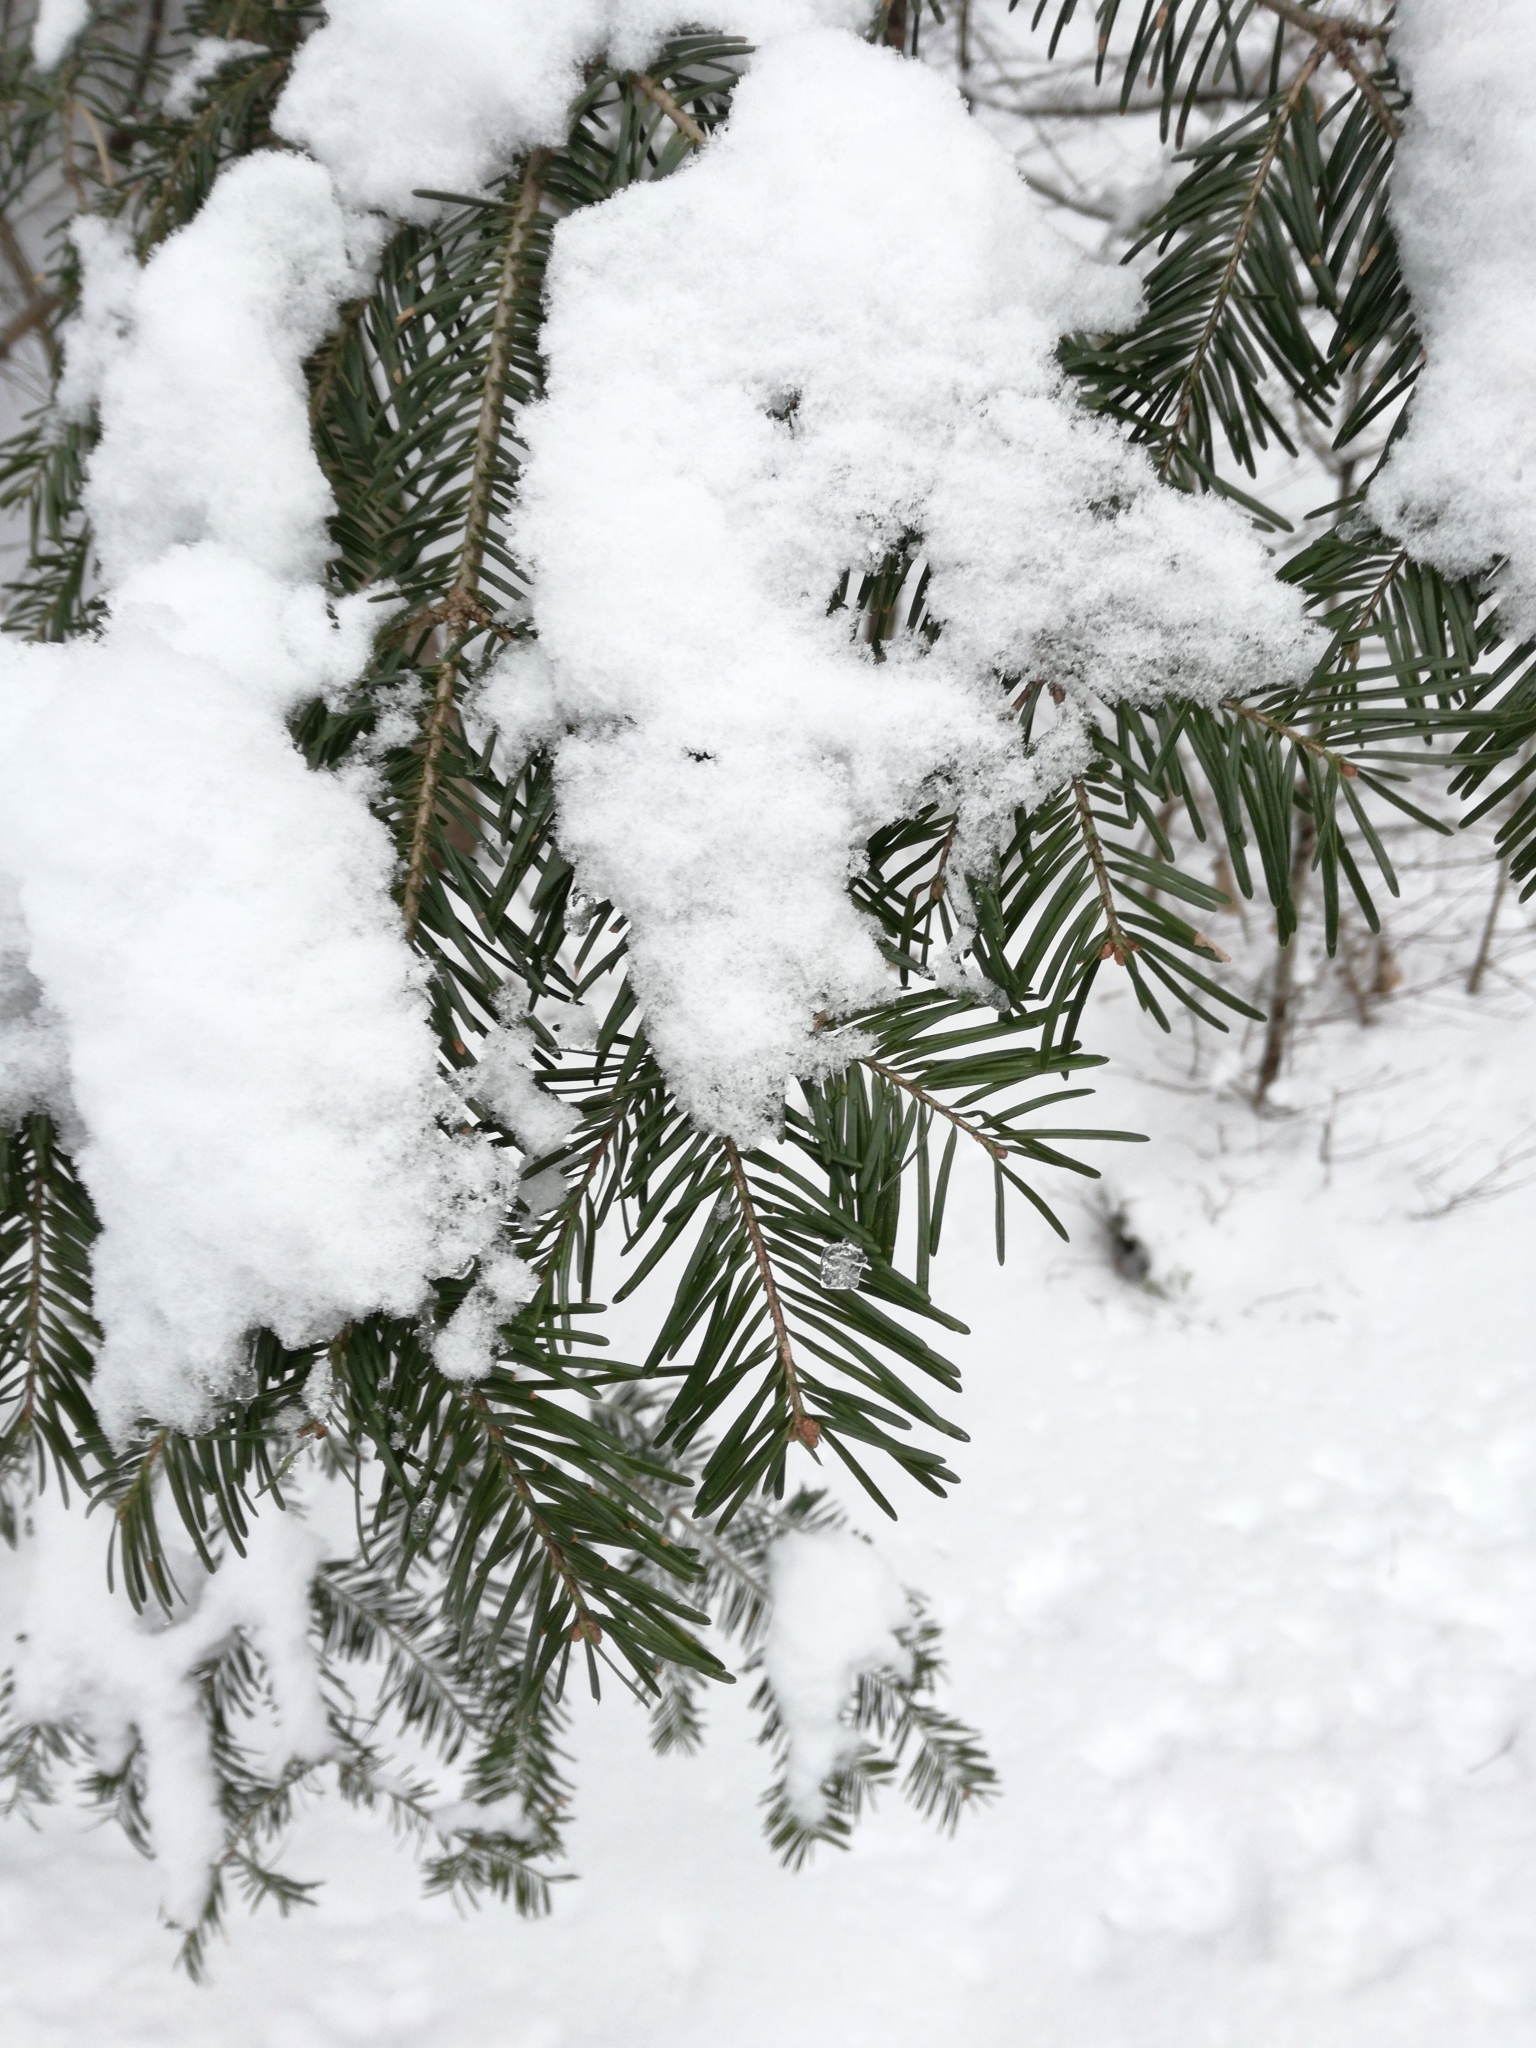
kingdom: Plantae
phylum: Tracheophyta
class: Pinopsida
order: Pinales
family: Pinaceae
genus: Abies
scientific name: Abies balsamea
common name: Balsam fir
